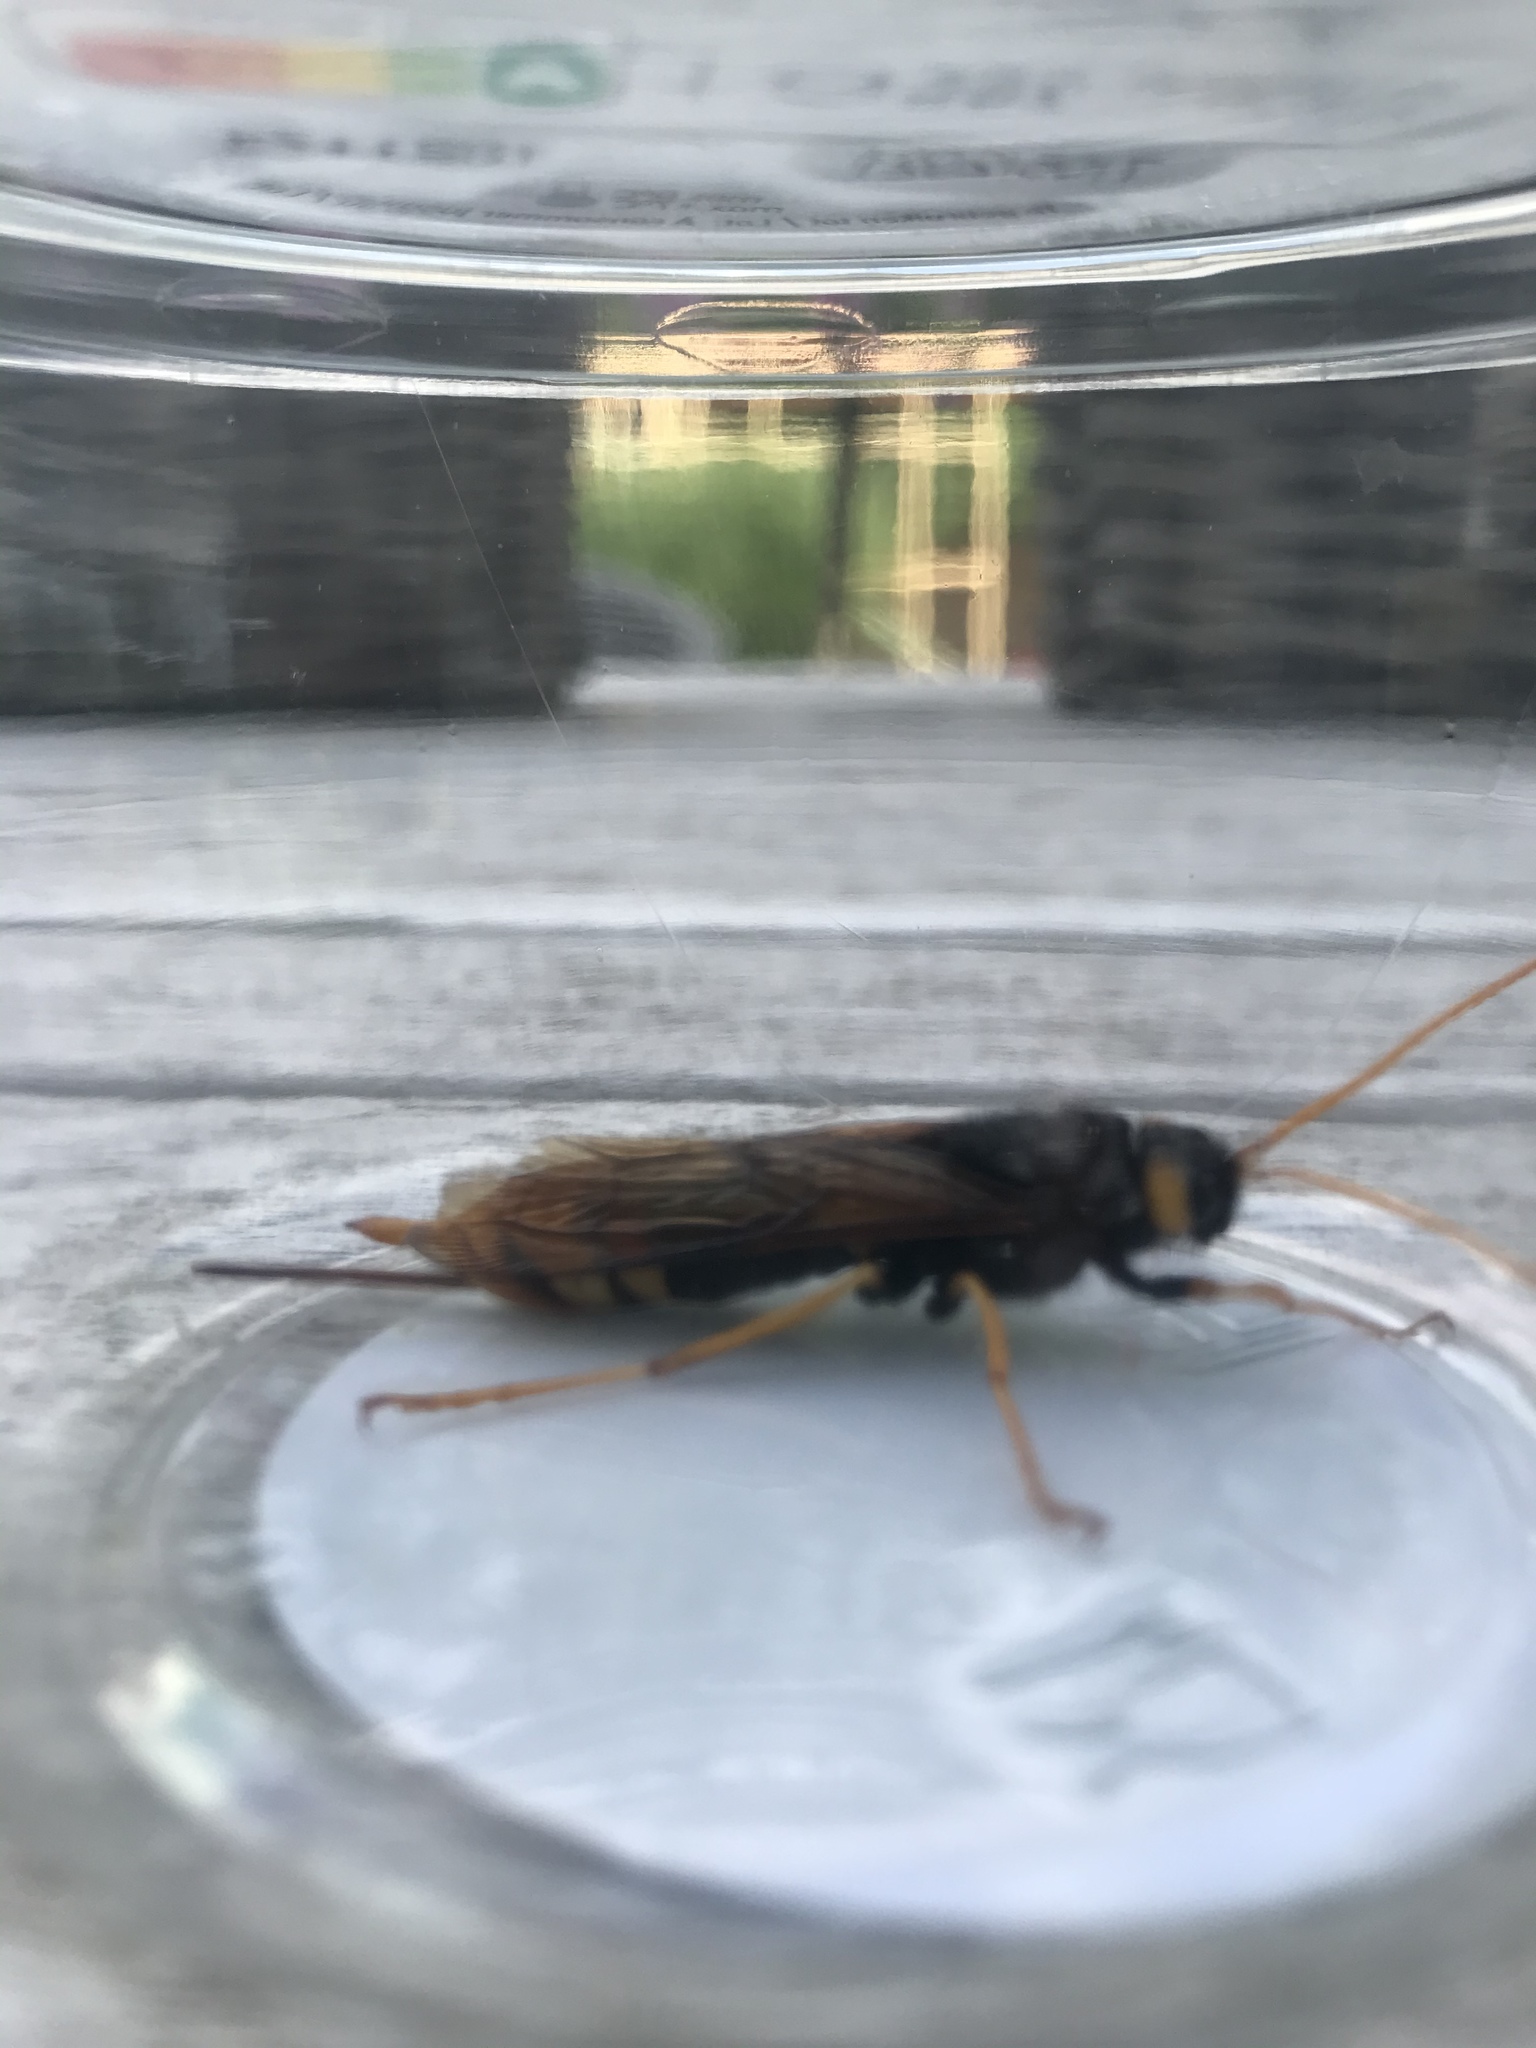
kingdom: Animalia
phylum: Arthropoda
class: Insecta
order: Hymenoptera
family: Siricidae
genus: Urocerus
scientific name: Urocerus gigas
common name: Giant woodwasp
